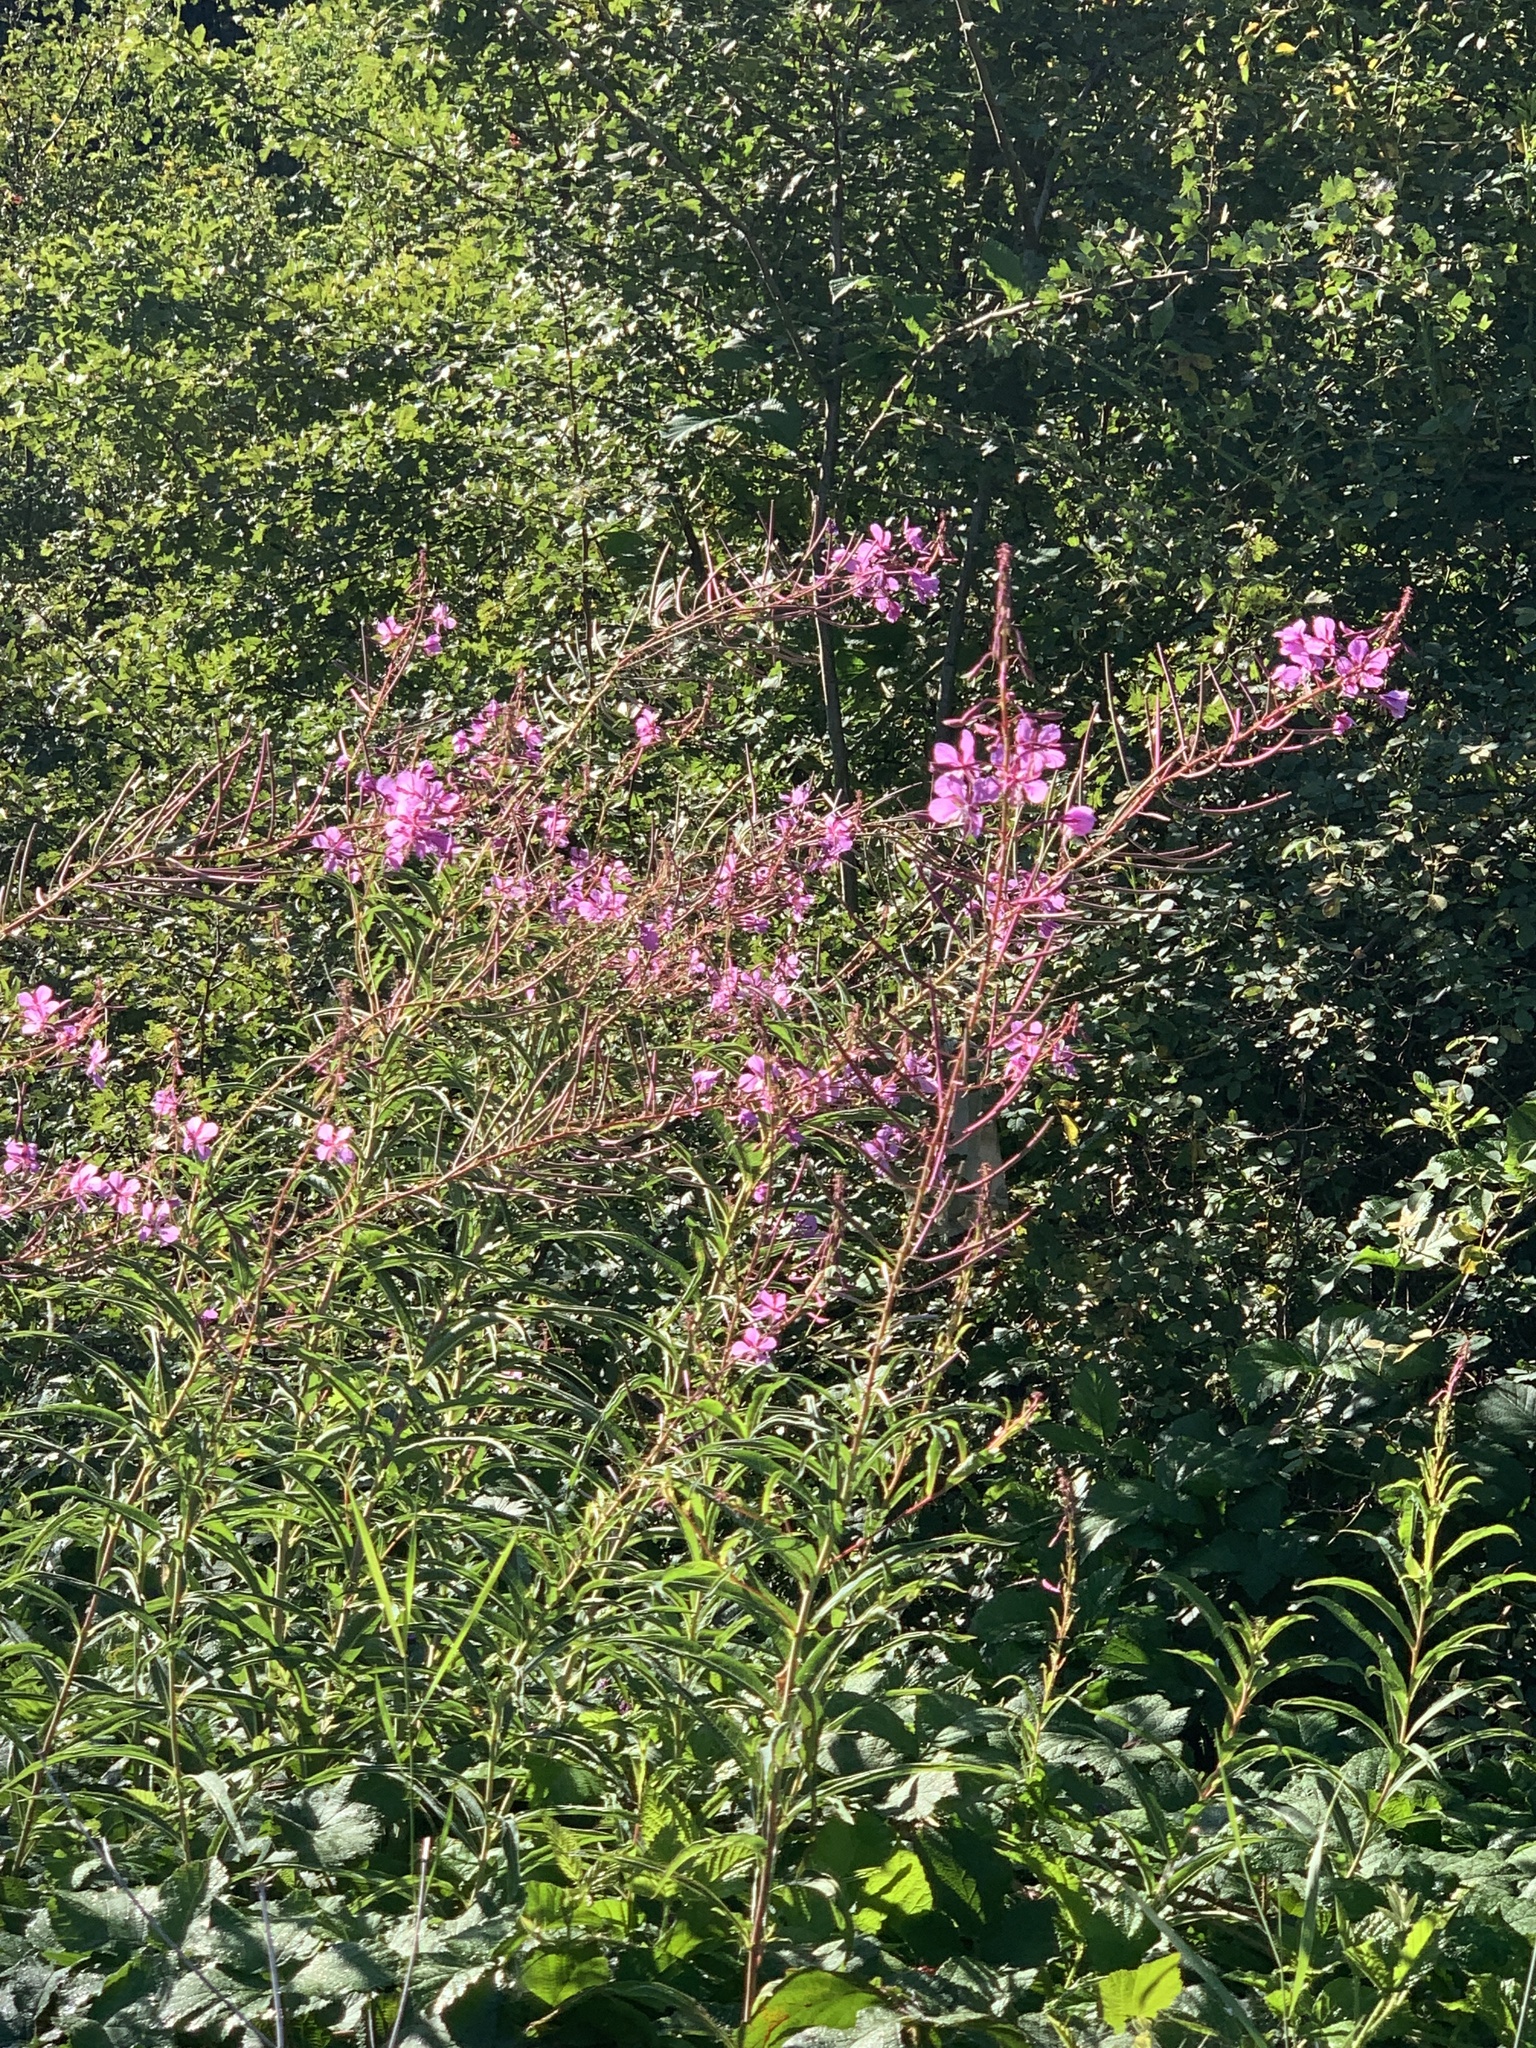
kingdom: Plantae
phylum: Tracheophyta
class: Magnoliopsida
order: Myrtales
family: Onagraceae
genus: Chamaenerion
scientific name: Chamaenerion angustifolium
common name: Fireweed
